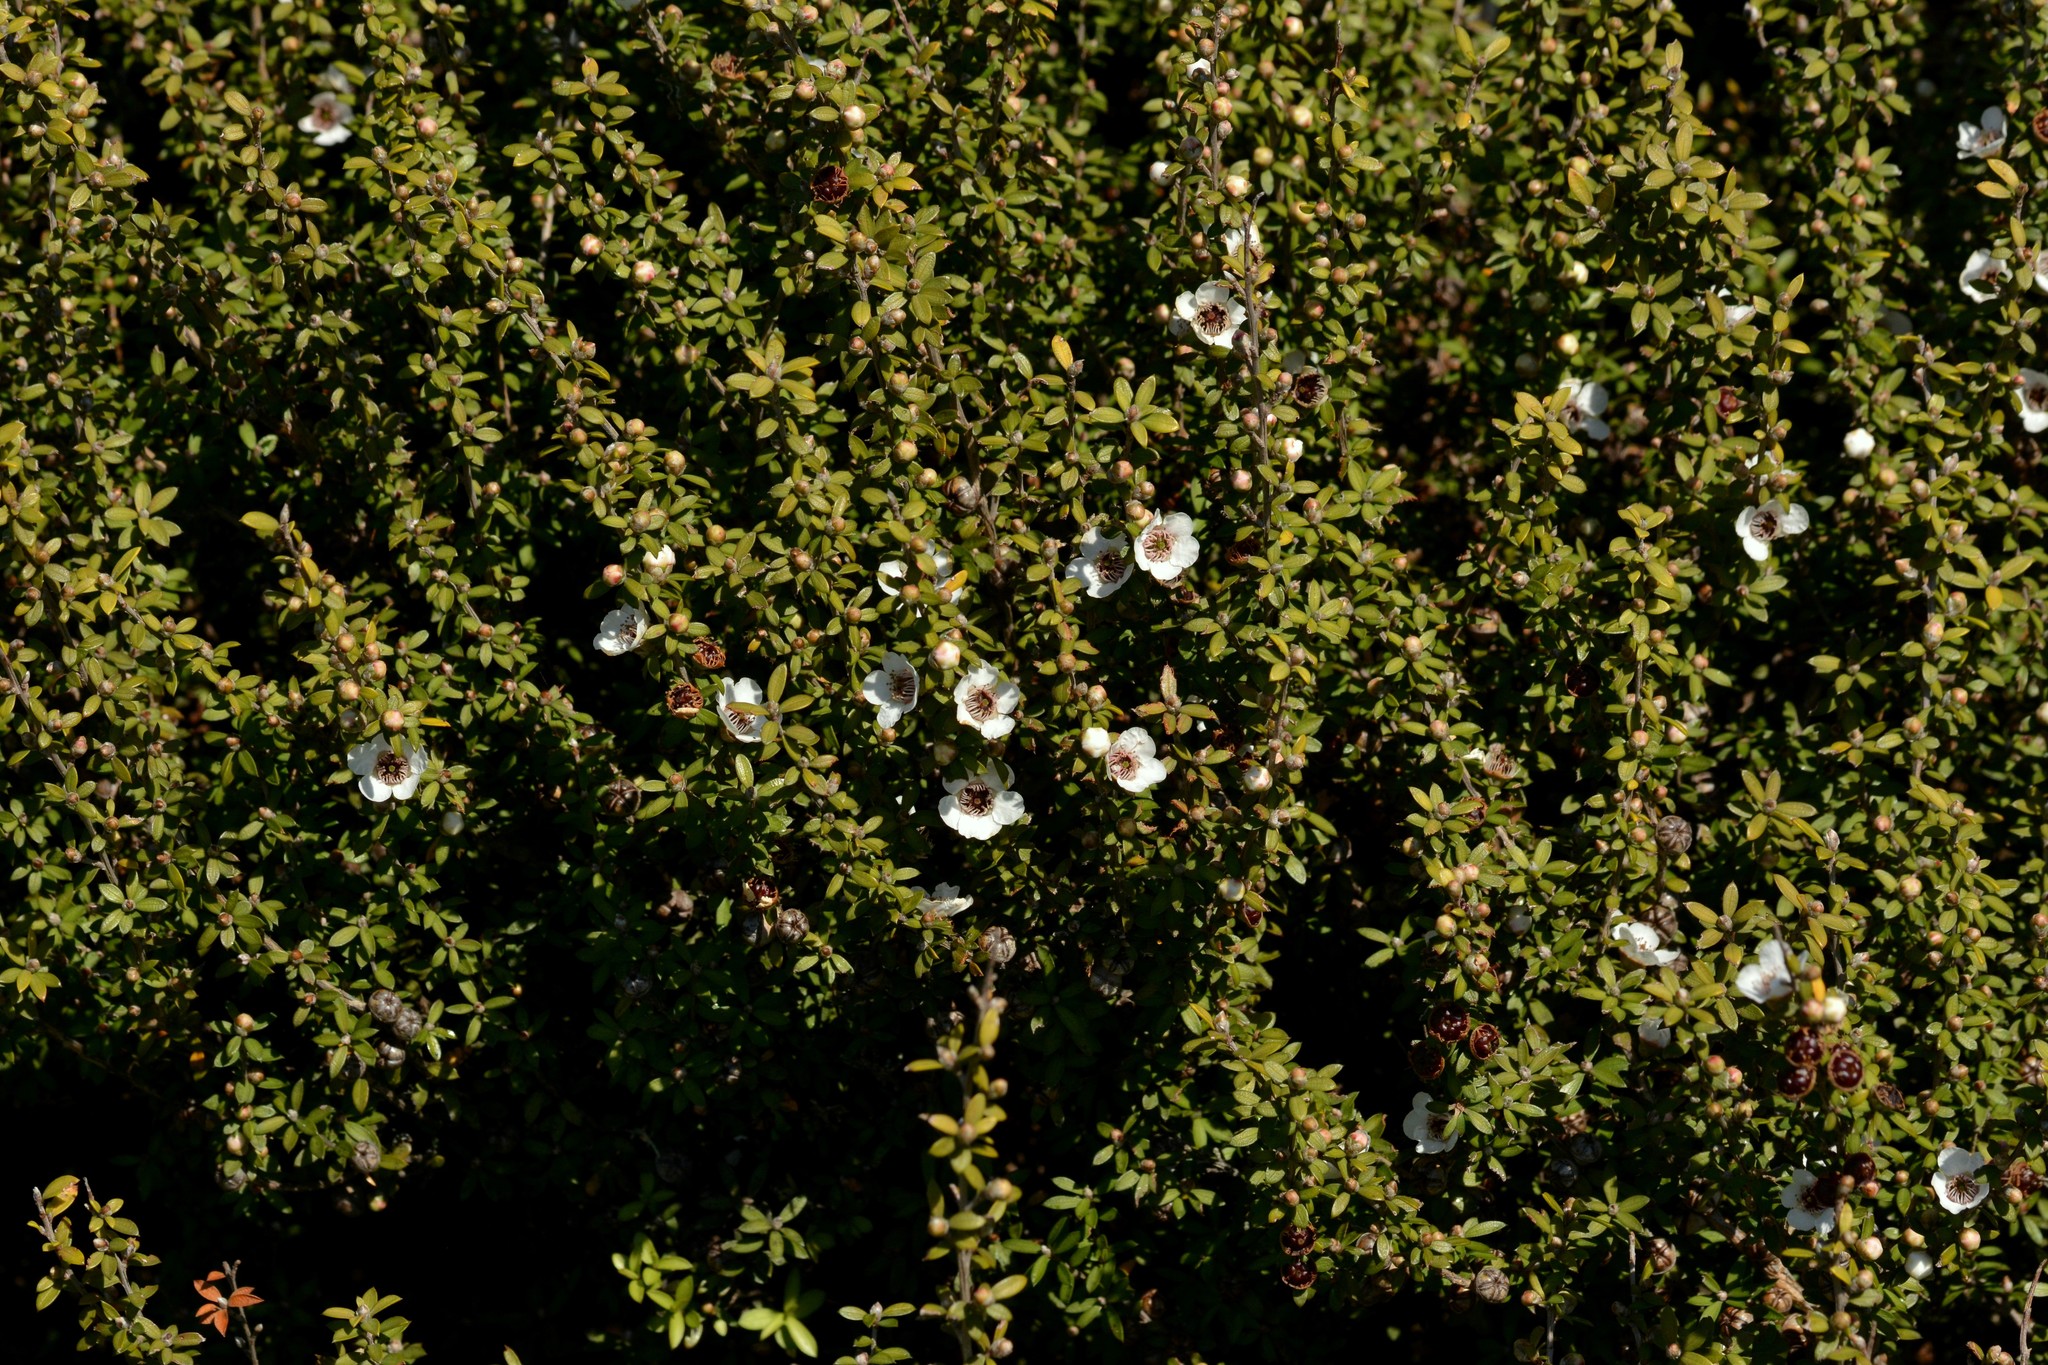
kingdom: Plantae
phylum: Tracheophyta
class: Magnoliopsida
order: Myrtales
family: Myrtaceae
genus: Leptospermum
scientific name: Leptospermum scoparium
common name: Broom tea-tree
